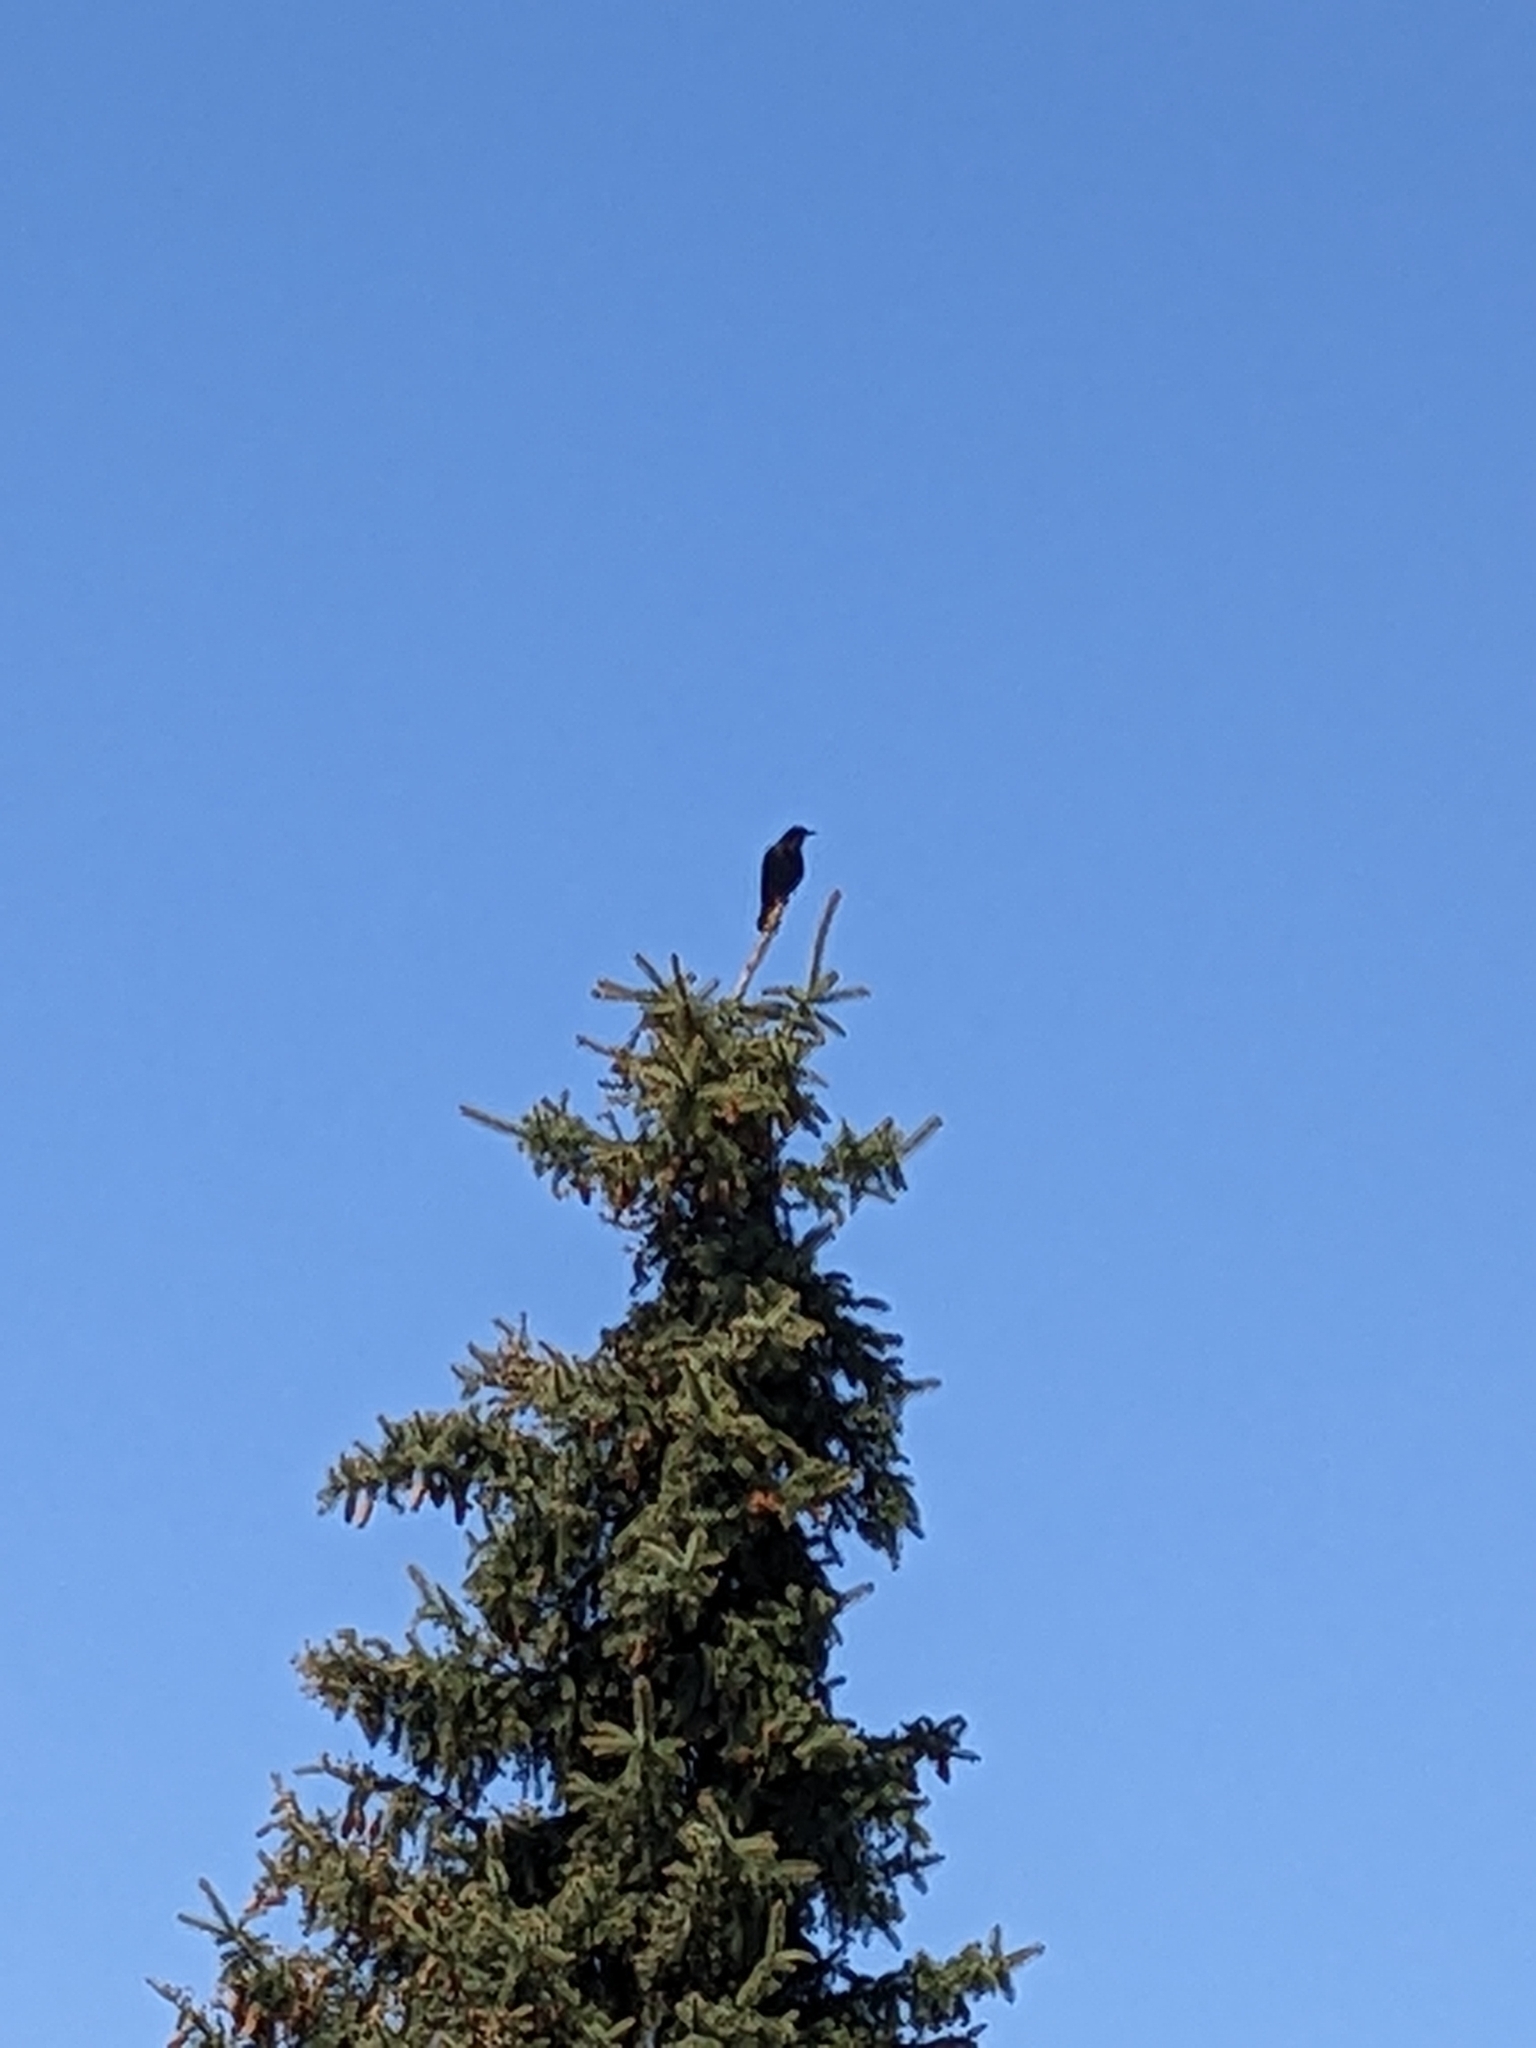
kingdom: Animalia
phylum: Chordata
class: Aves
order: Passeriformes
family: Corvidae
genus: Corvus
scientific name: Corvus brachyrhynchos
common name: American crow
